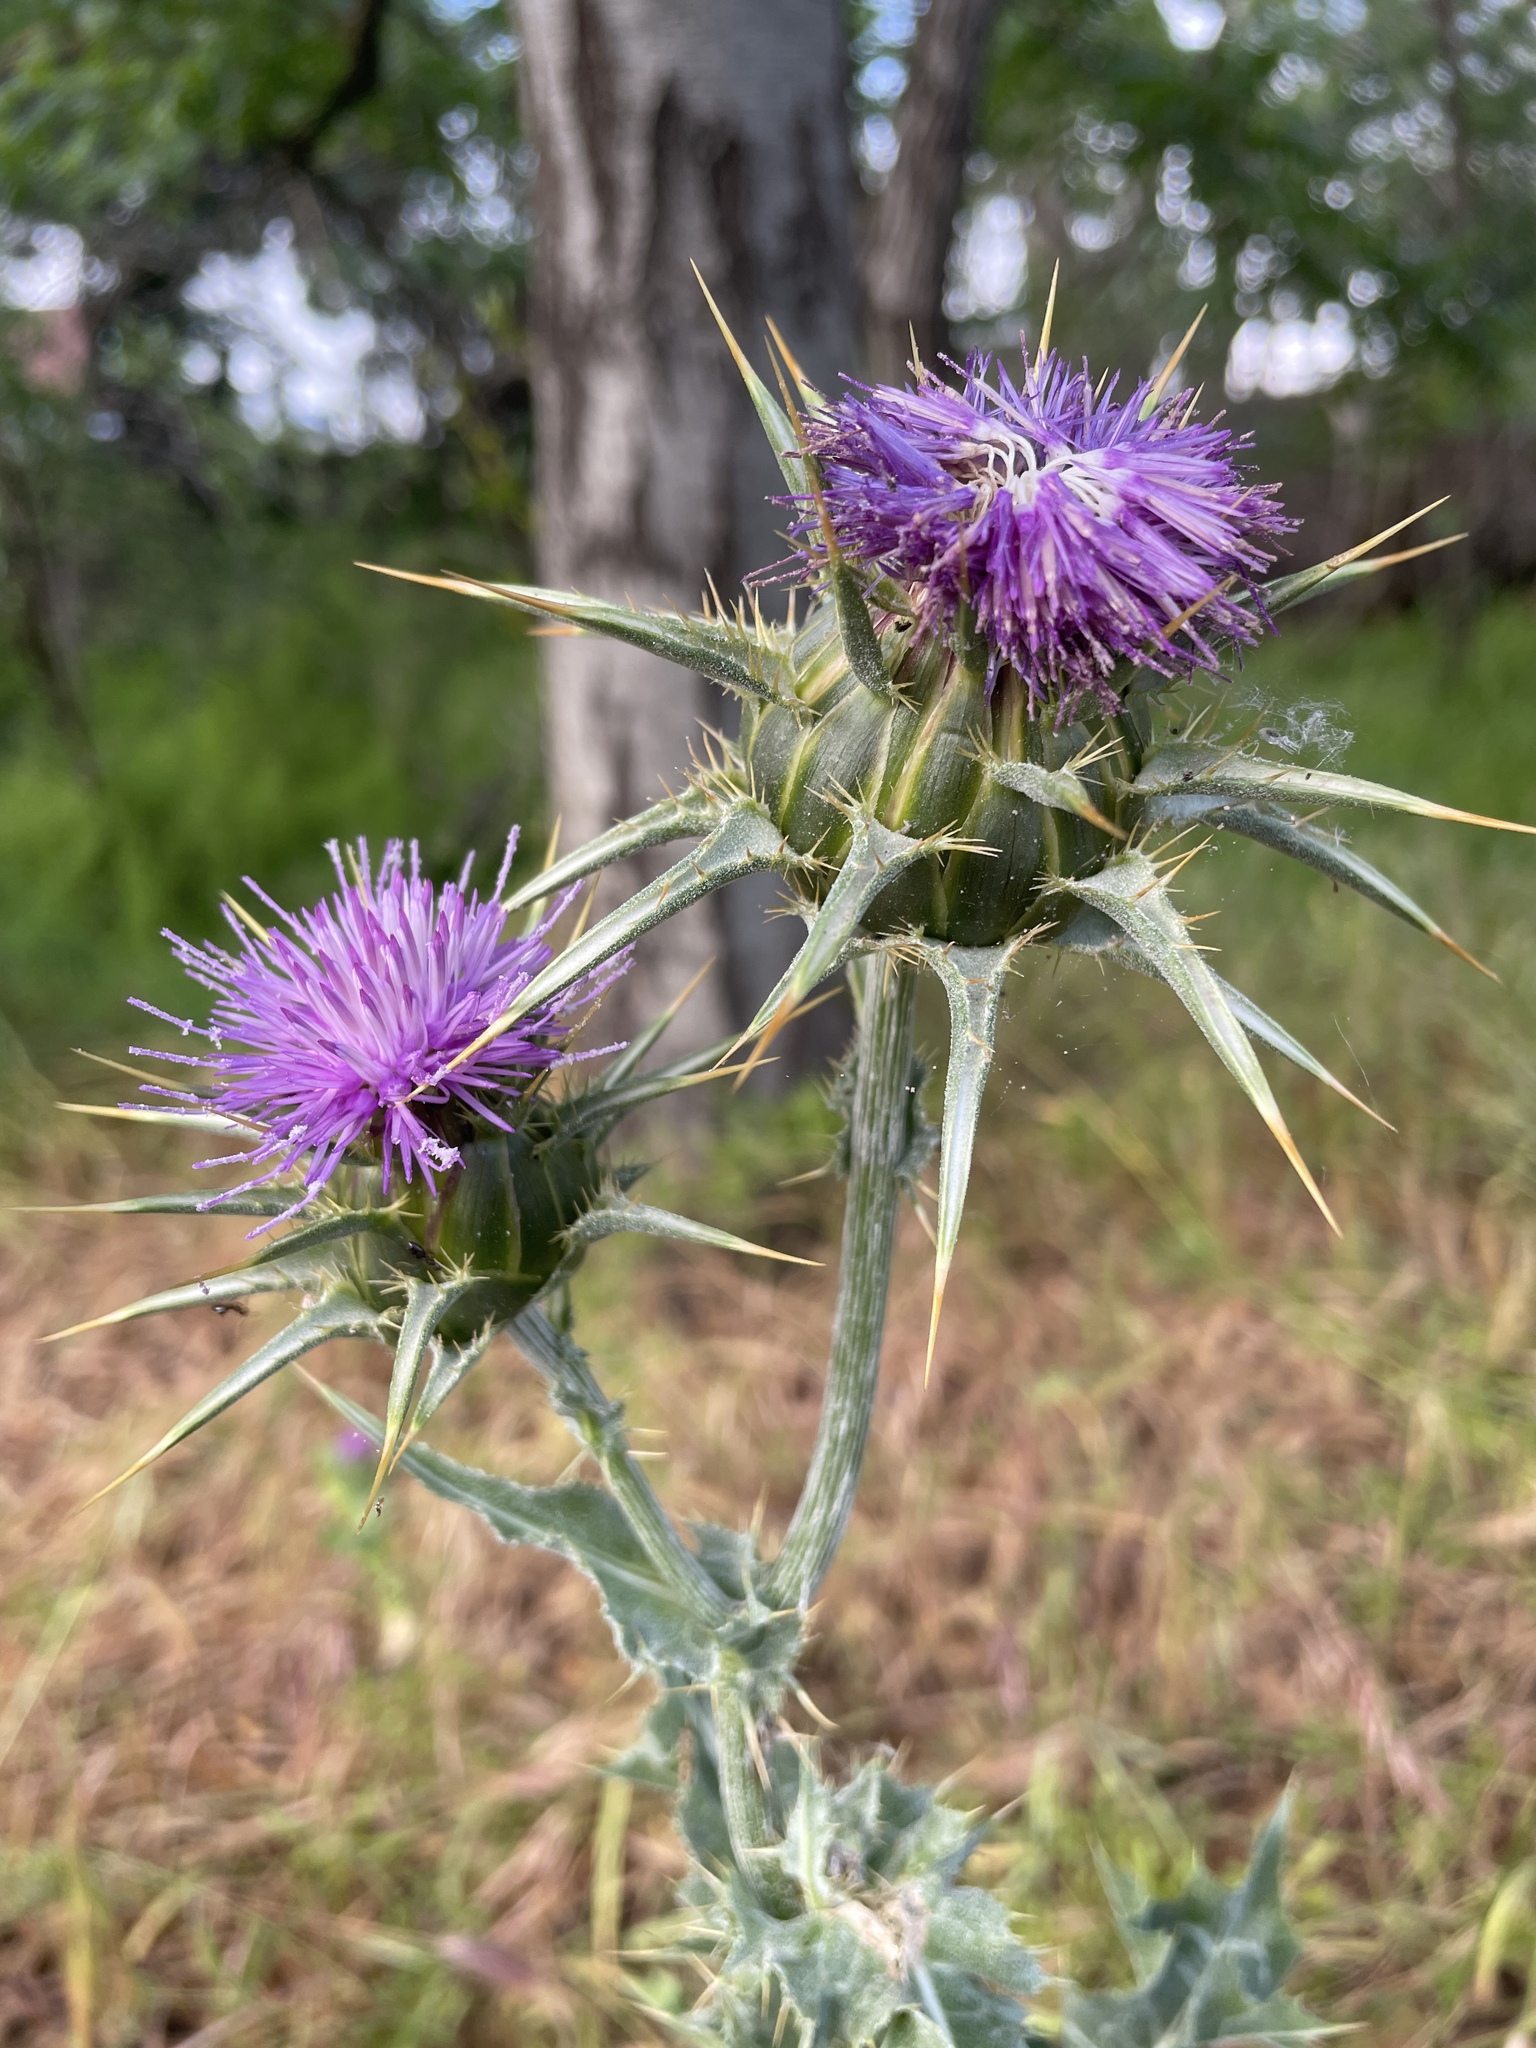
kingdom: Plantae
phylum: Tracheophyta
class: Magnoliopsida
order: Asterales
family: Asteraceae
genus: Silybum
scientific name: Silybum marianum
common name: Milk thistle
